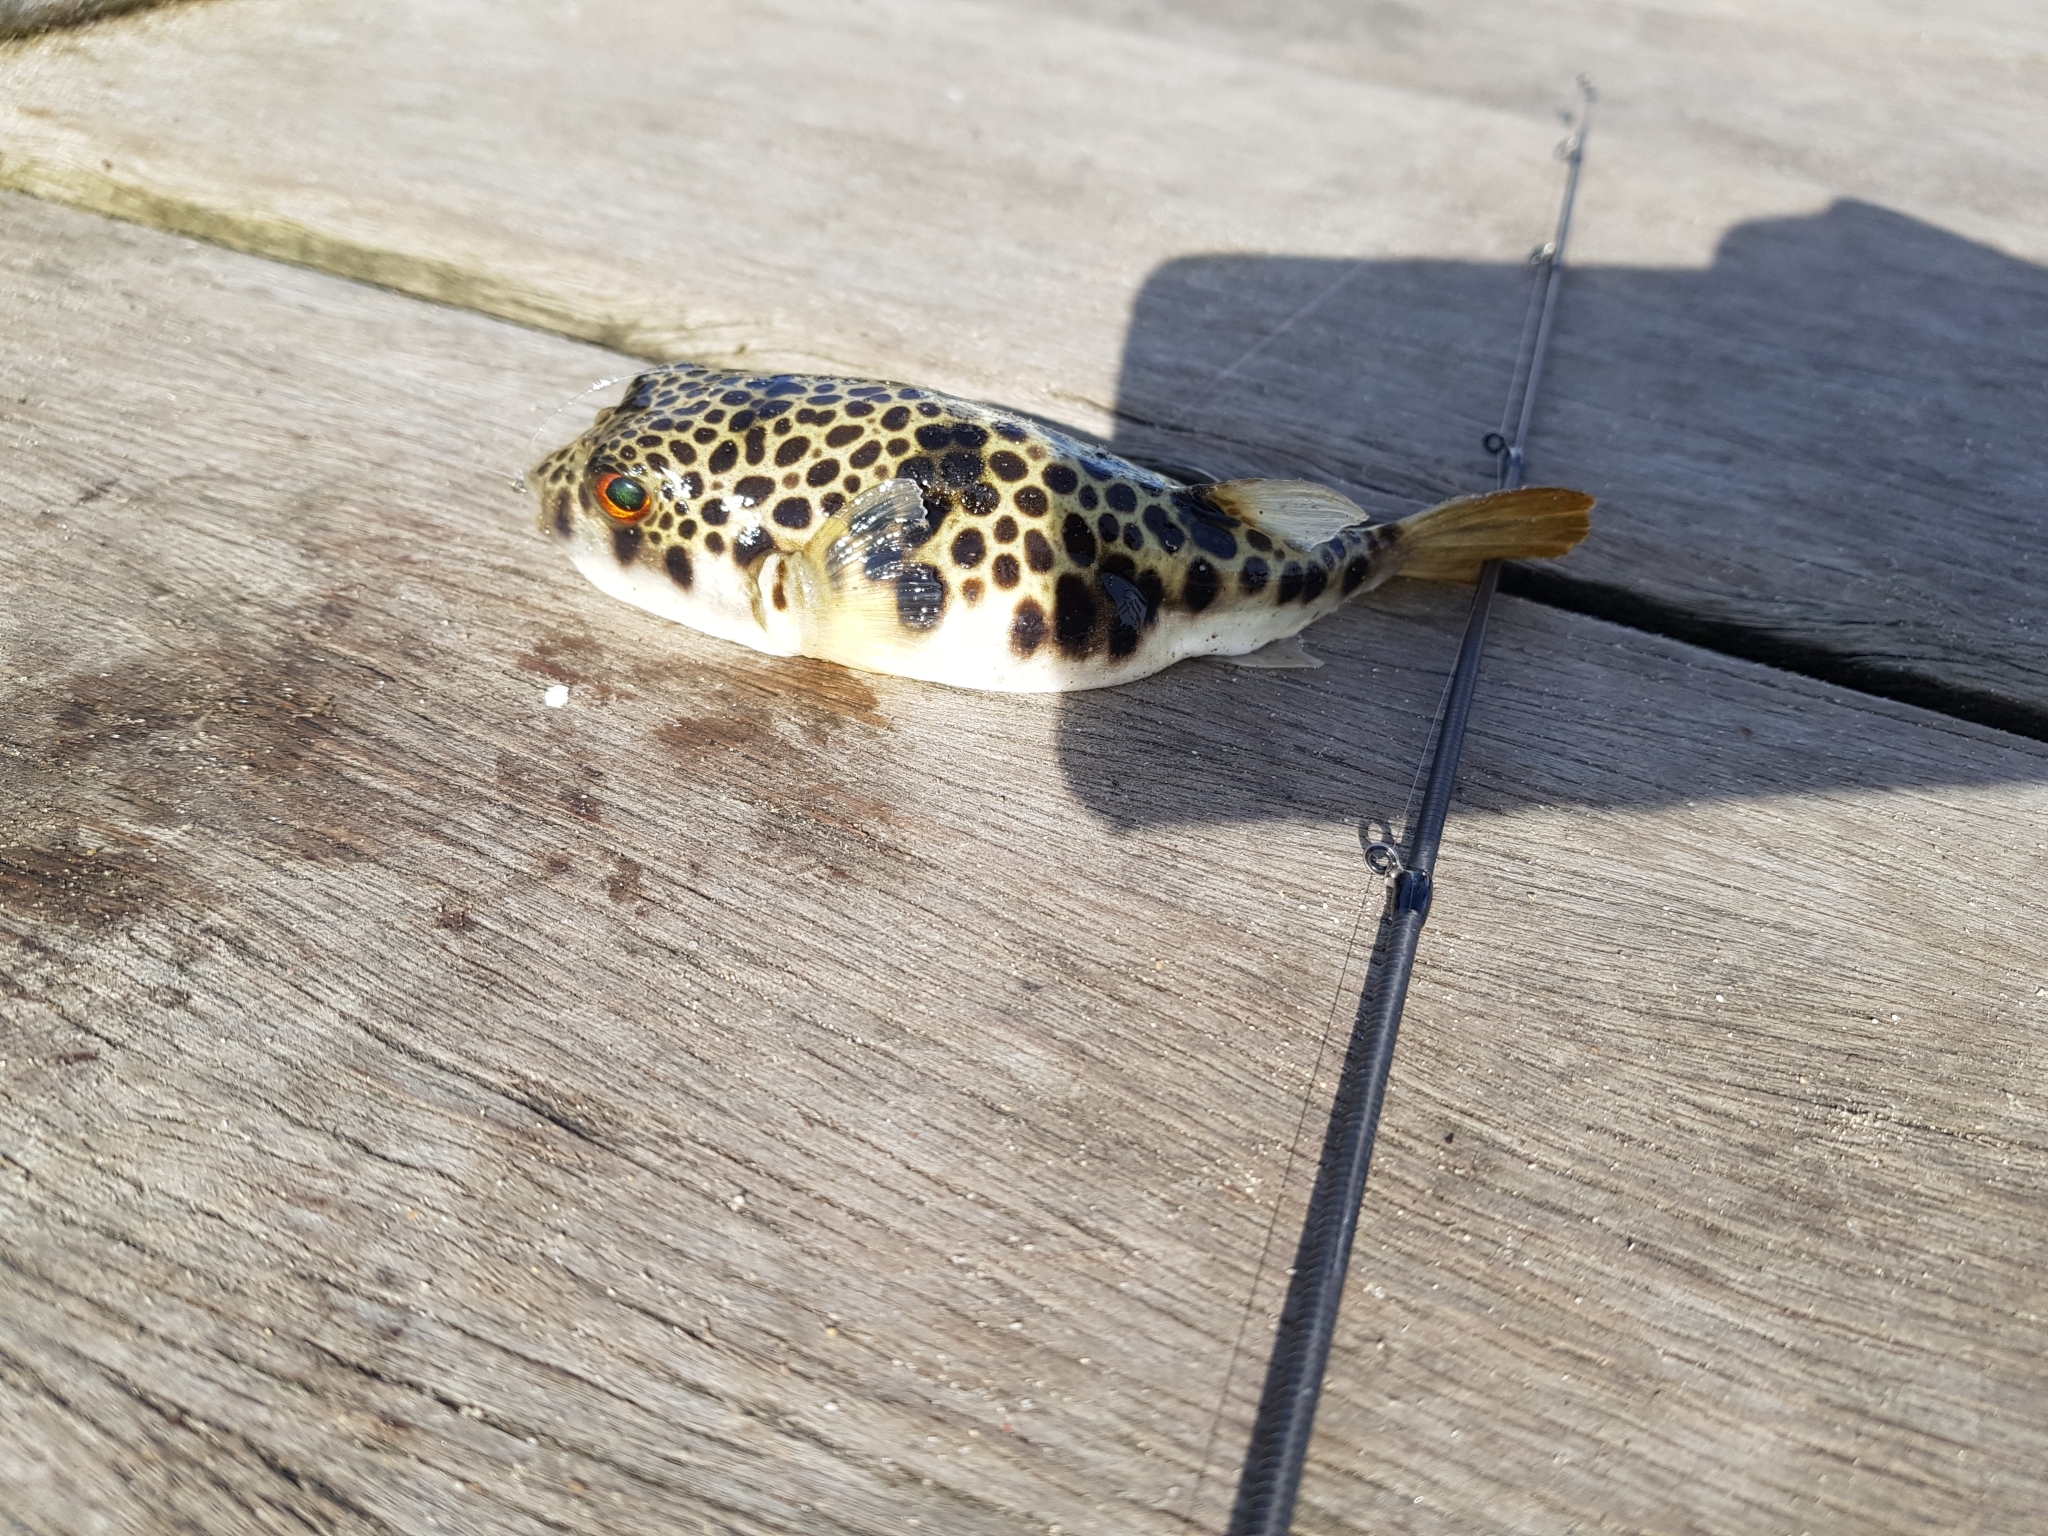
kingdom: Animalia
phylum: Chordata
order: Tetraodontiformes
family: Tetraodontidae
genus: Tetractenos
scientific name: Tetractenos glaber
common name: Smooth toadfish
